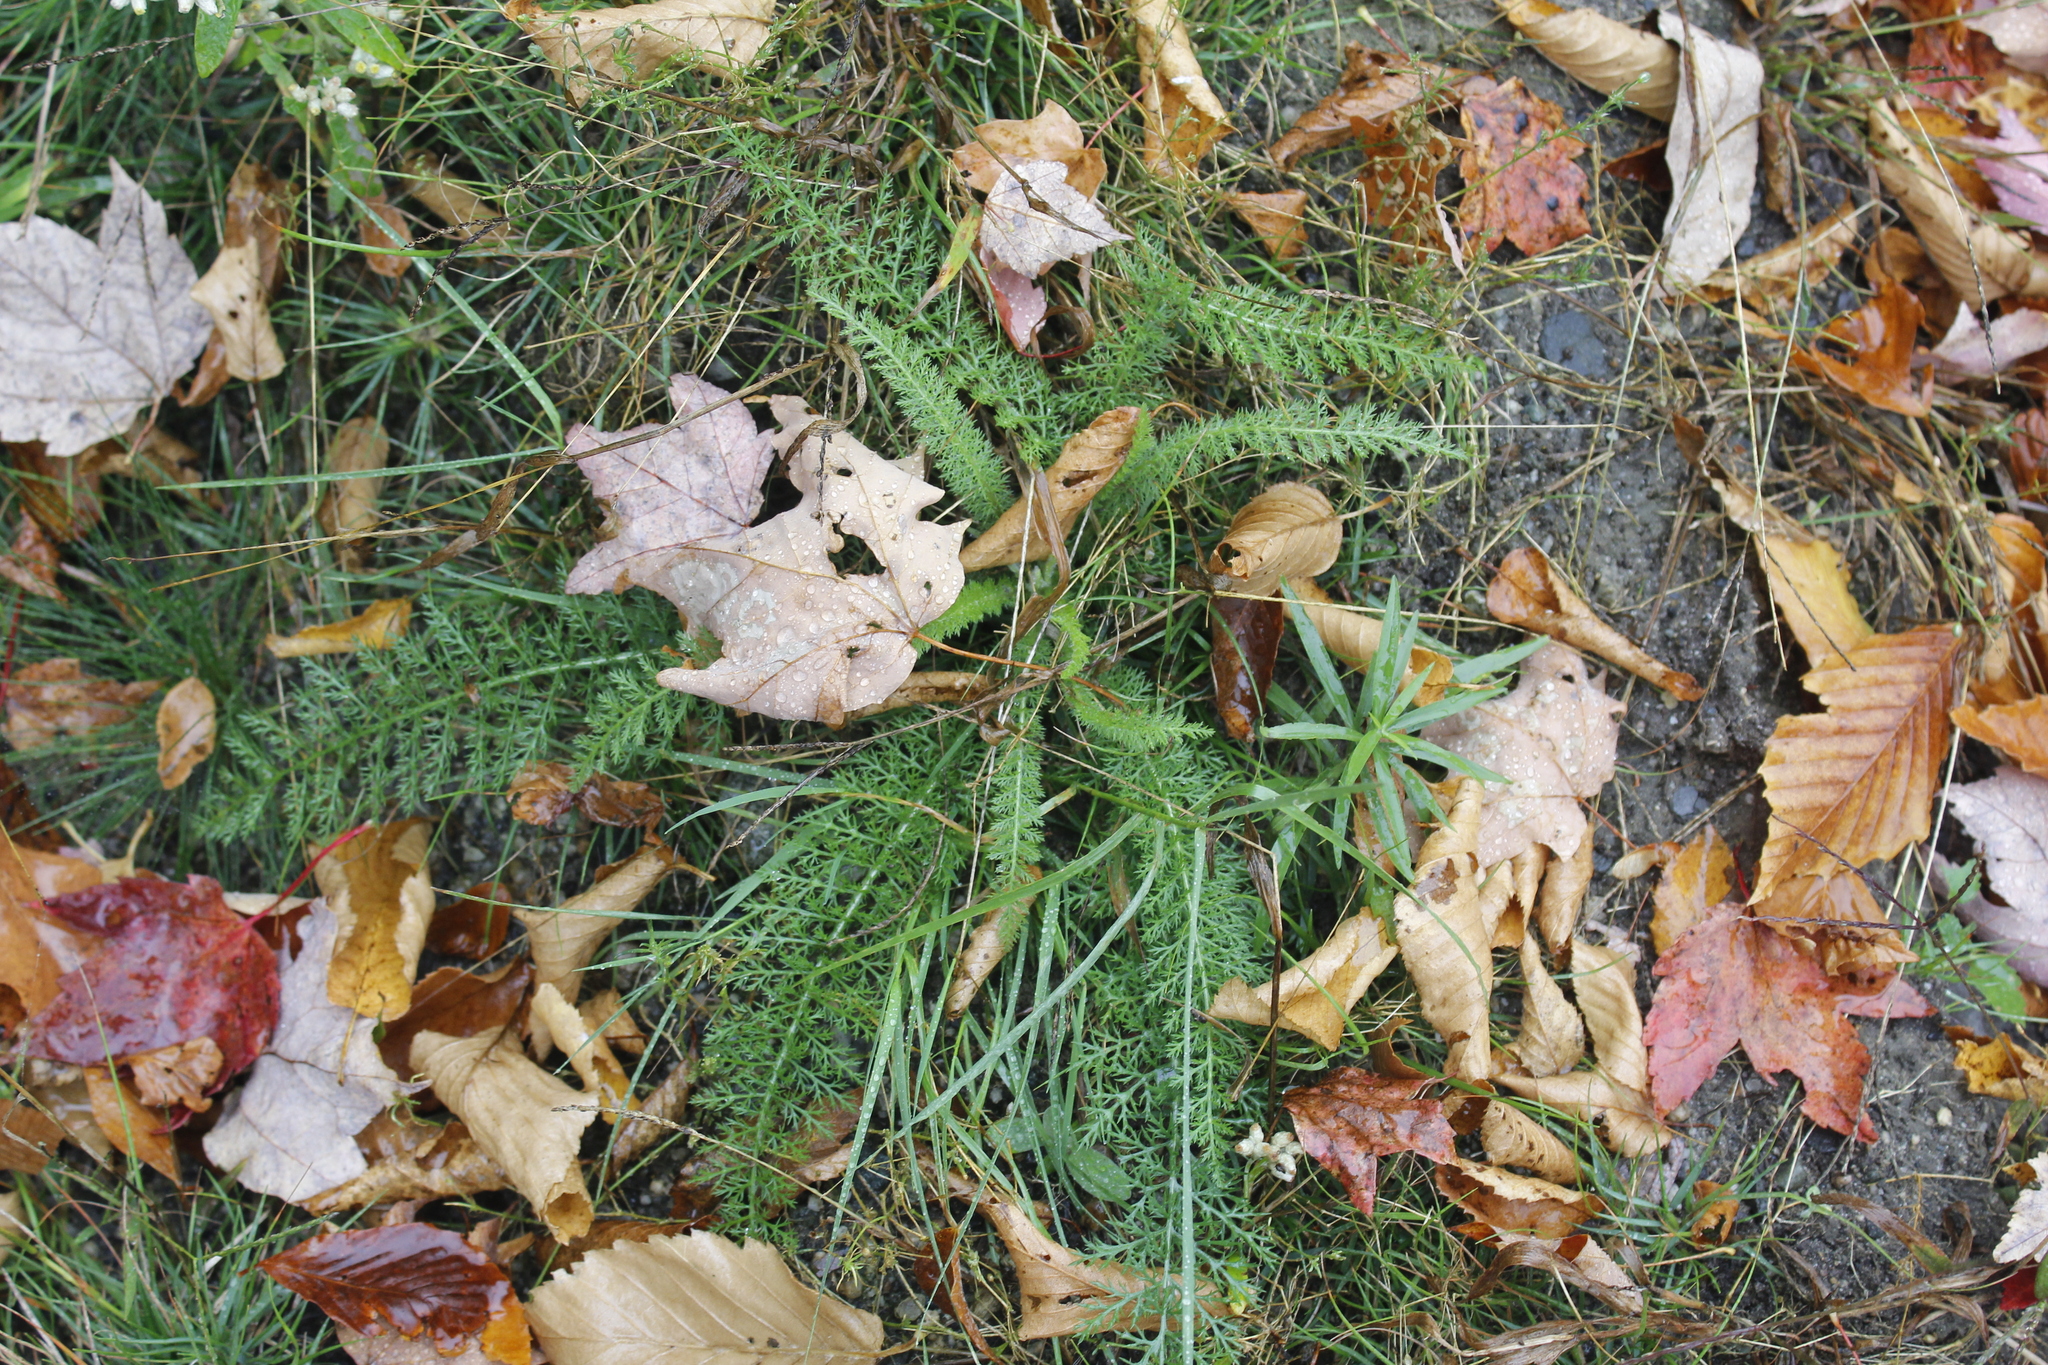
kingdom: Plantae
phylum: Tracheophyta
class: Magnoliopsida
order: Asterales
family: Asteraceae
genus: Achillea
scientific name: Achillea millefolium
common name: Yarrow
